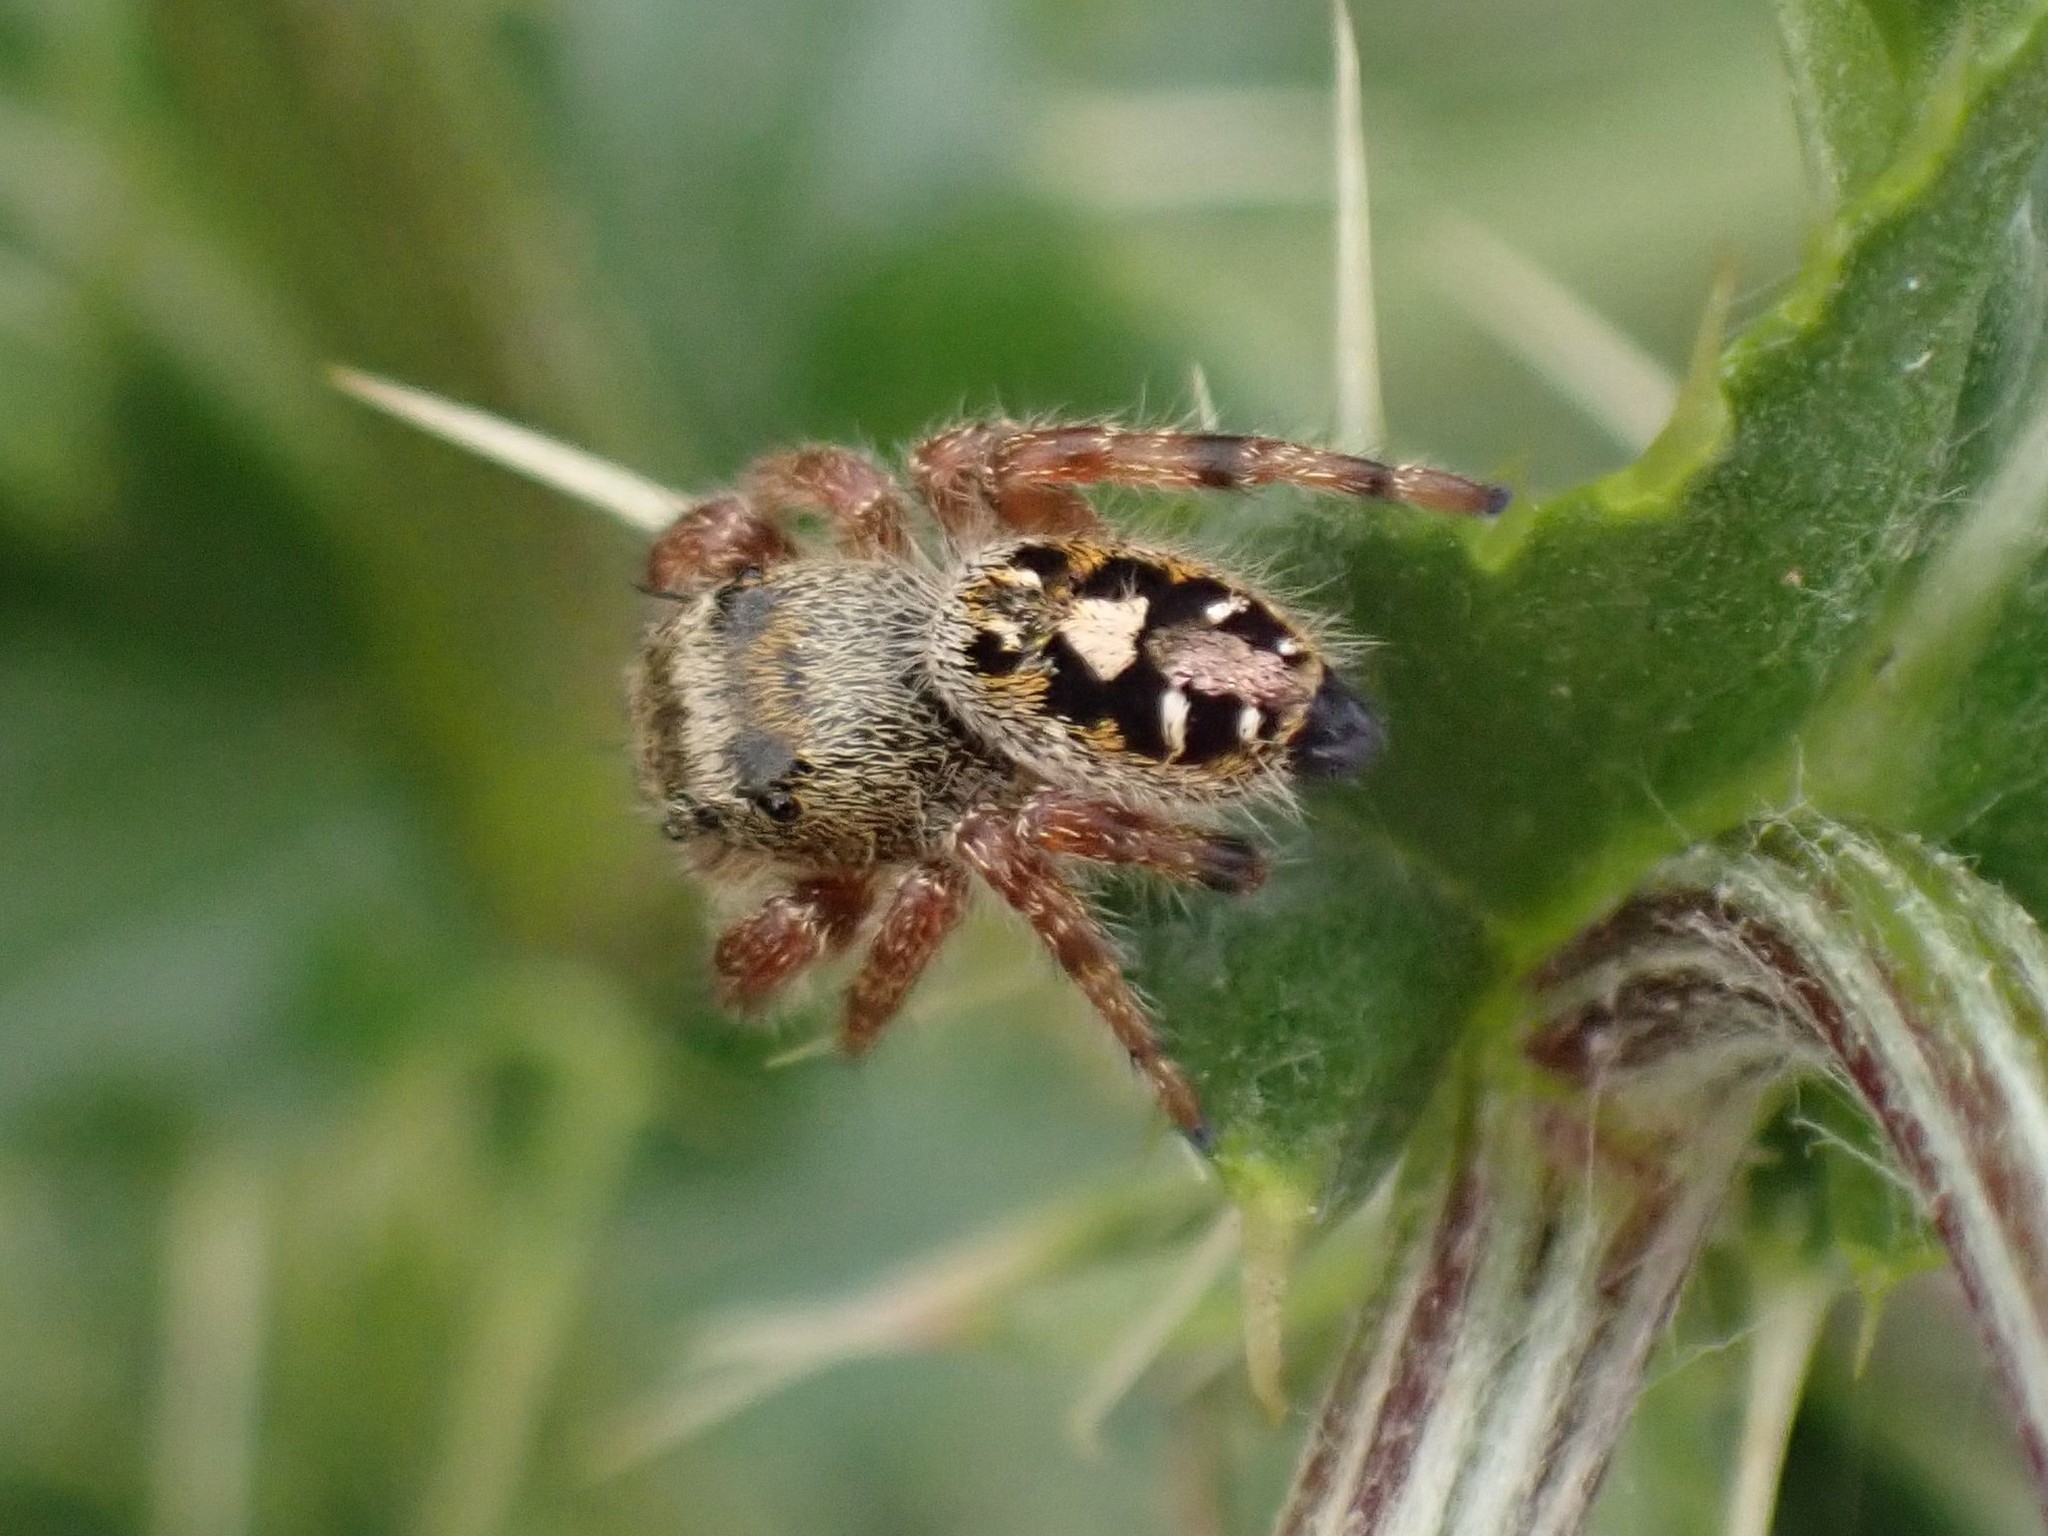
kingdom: Animalia
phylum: Arthropoda
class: Arachnida
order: Araneae
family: Salticidae
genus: Phidippus
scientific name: Phidippus audax
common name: Bold jumper
